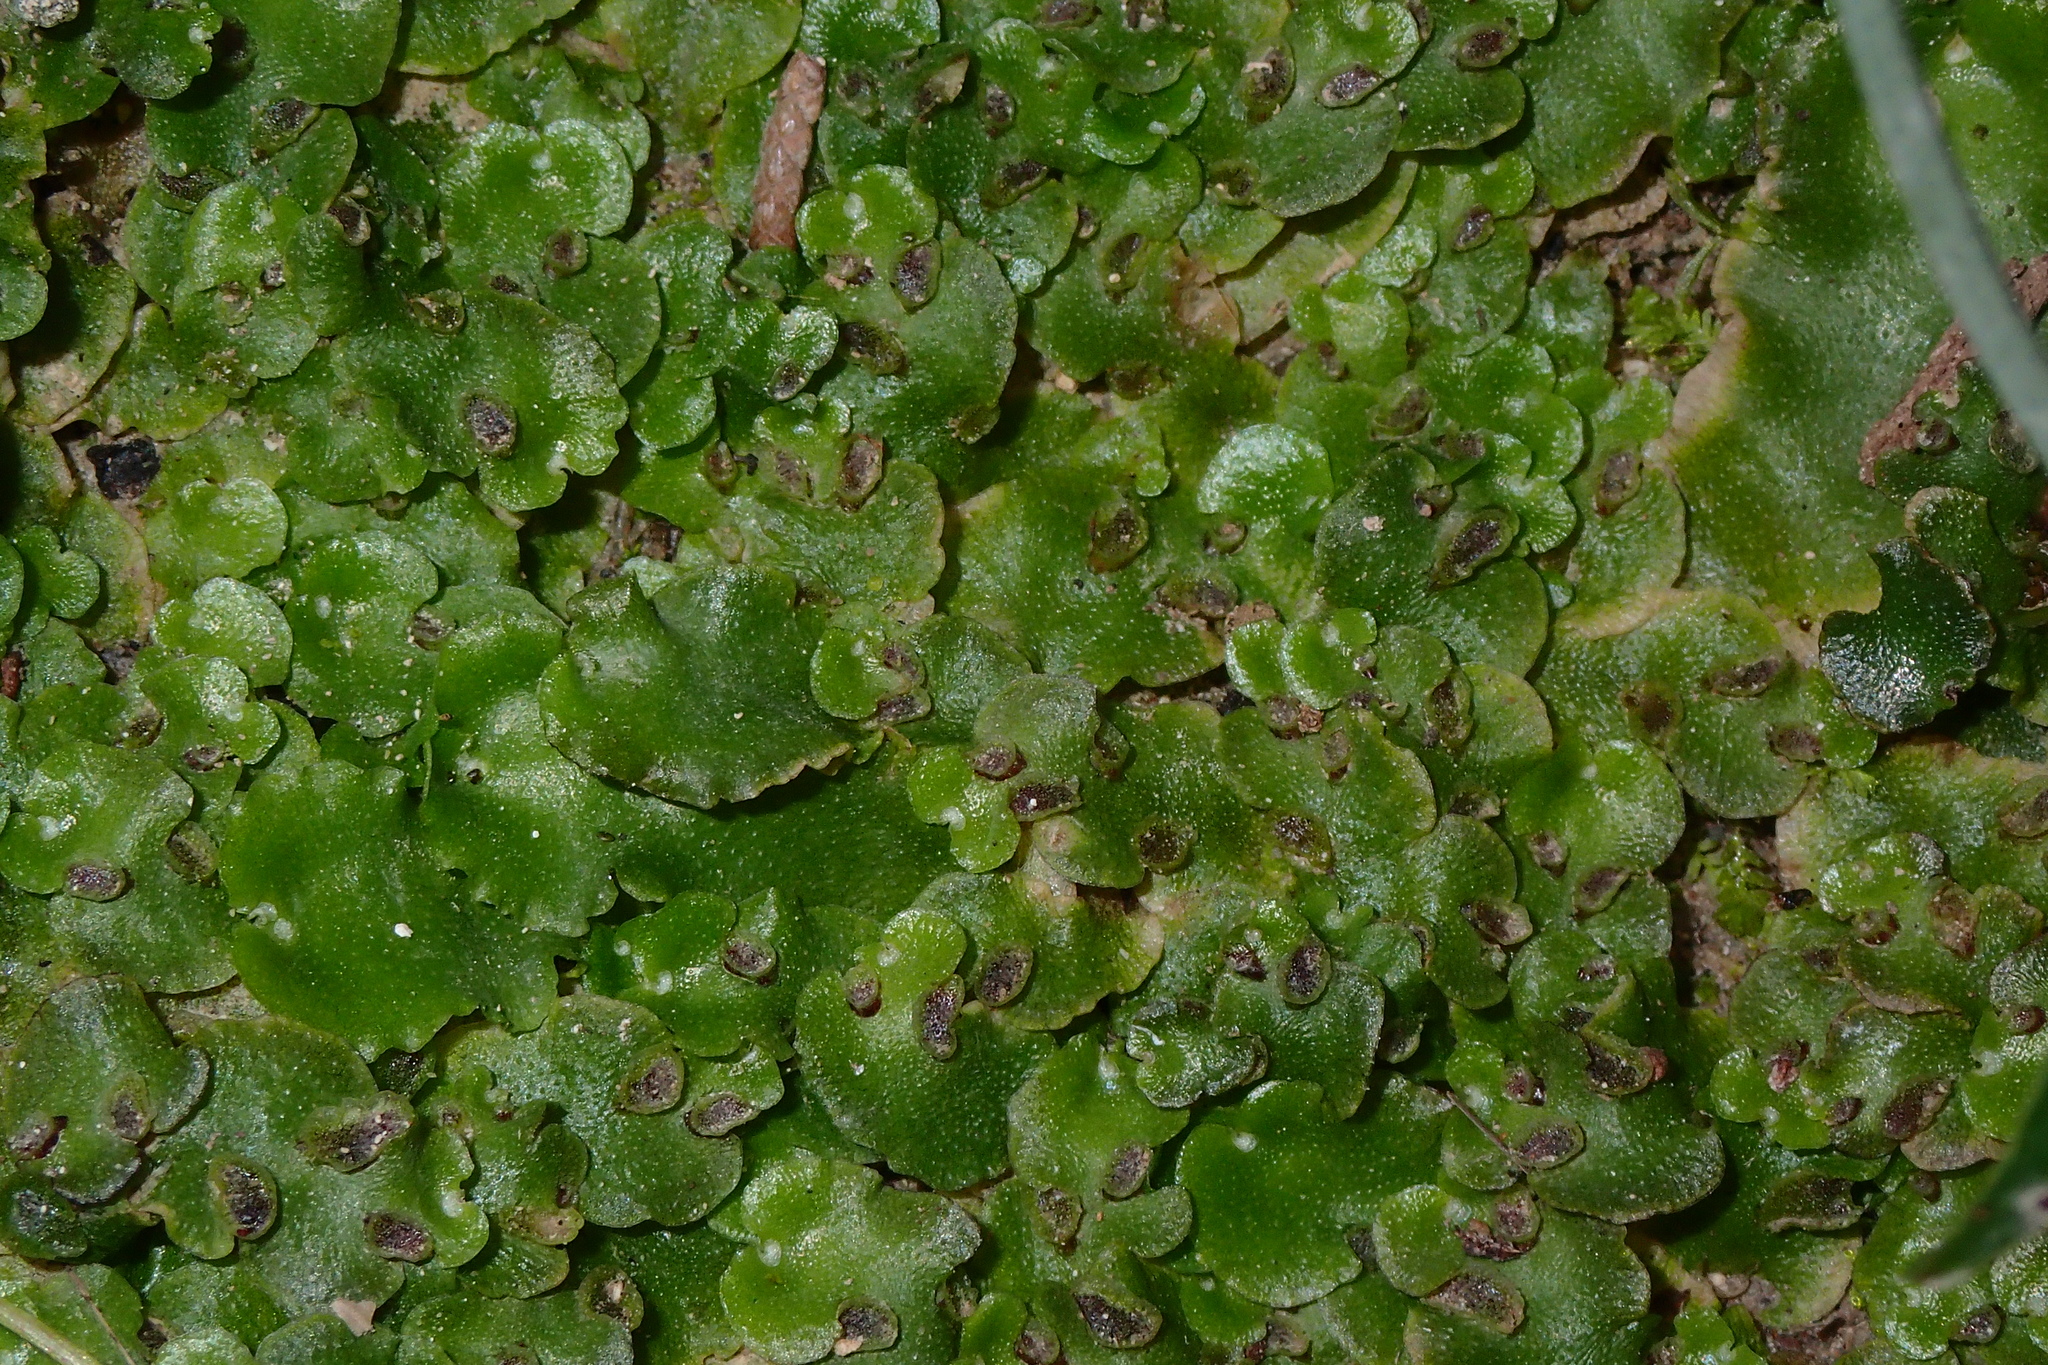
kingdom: Plantae
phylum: Marchantiophyta
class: Marchantiopsida
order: Lunulariales
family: Lunulariaceae
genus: Lunularia
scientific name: Lunularia cruciata
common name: Crescent-cup liverwort
